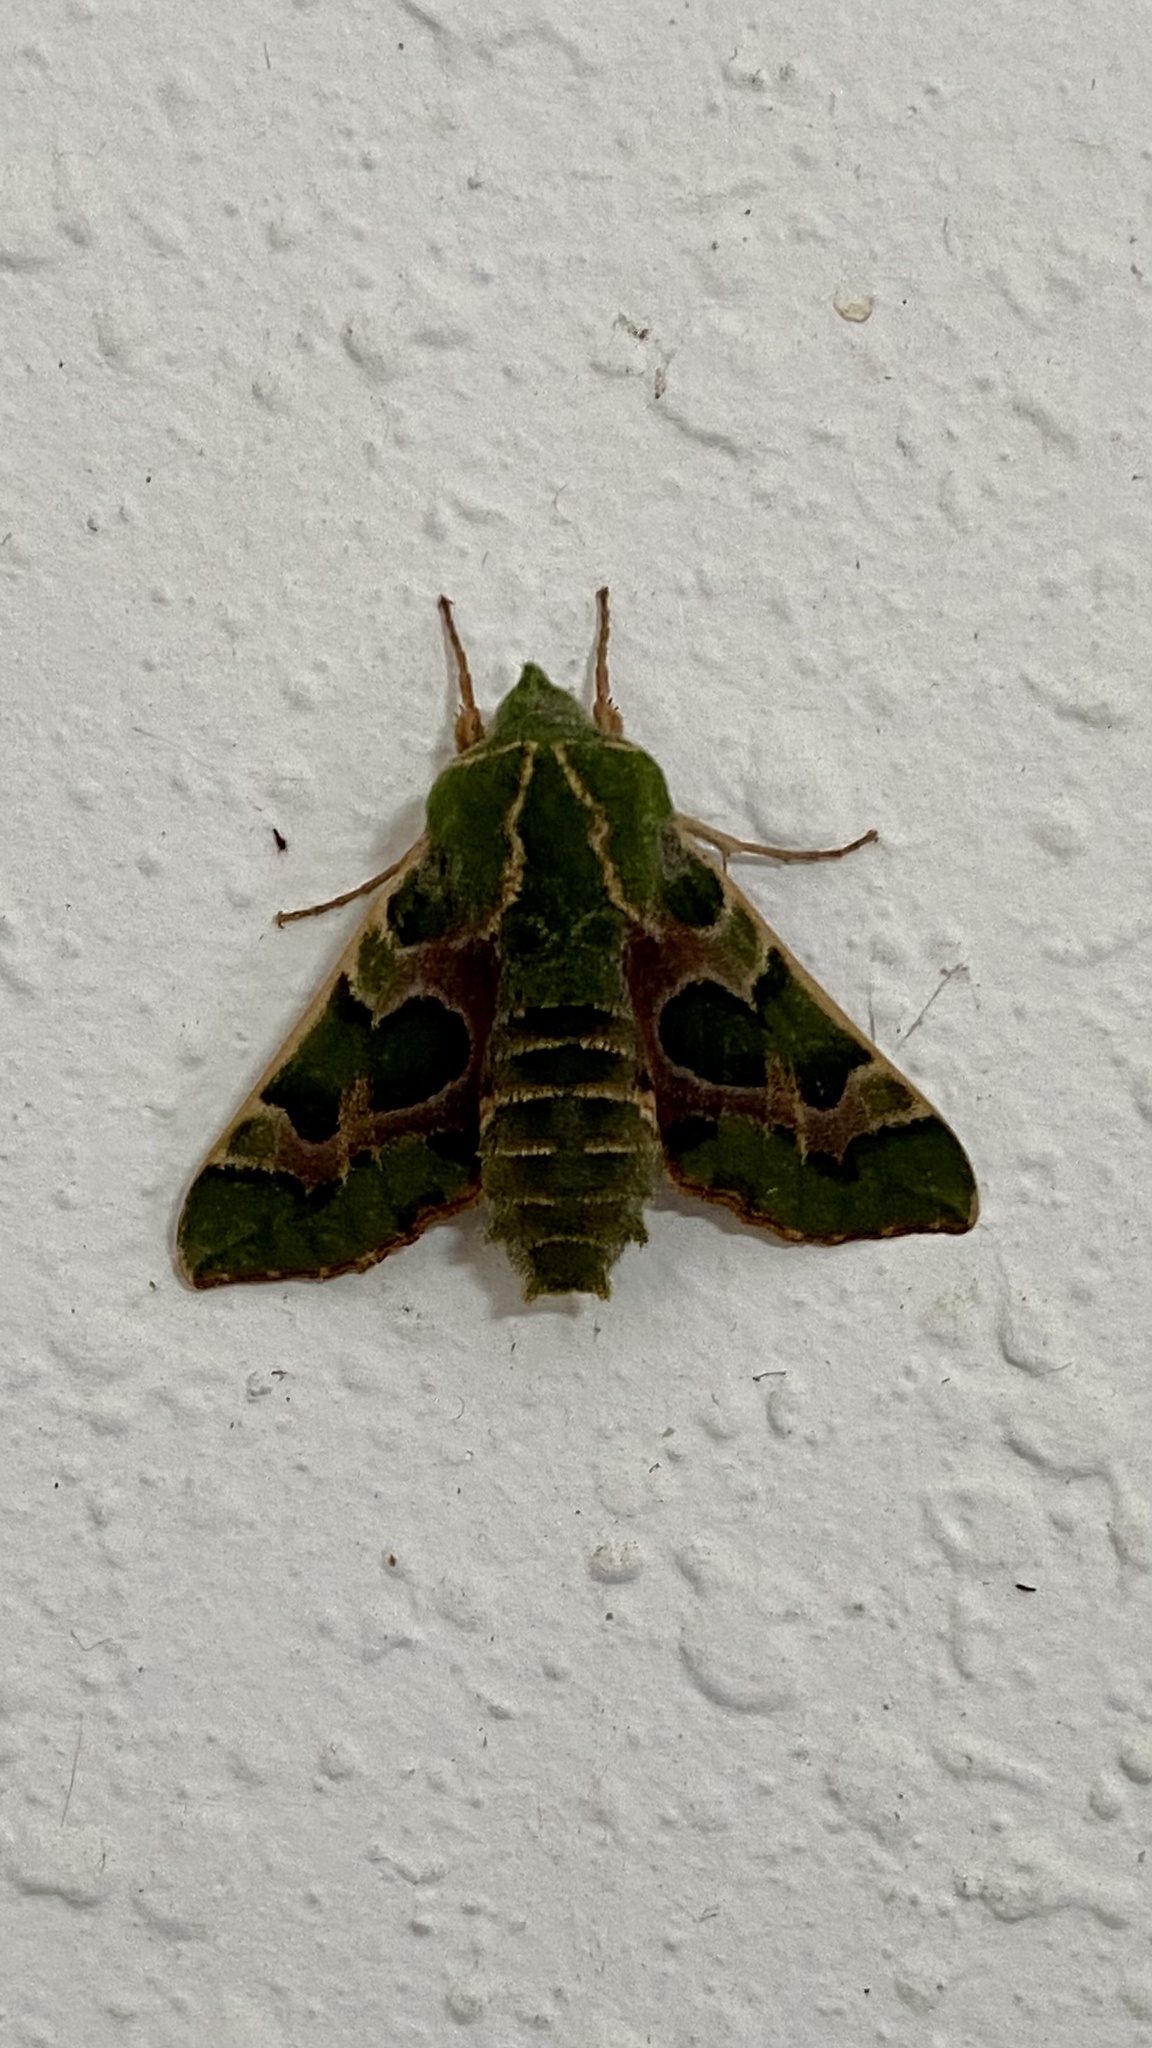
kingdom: Animalia
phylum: Arthropoda
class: Insecta
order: Lepidoptera
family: Sphingidae
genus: Proserpinus
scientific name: Proserpinus lucidus
